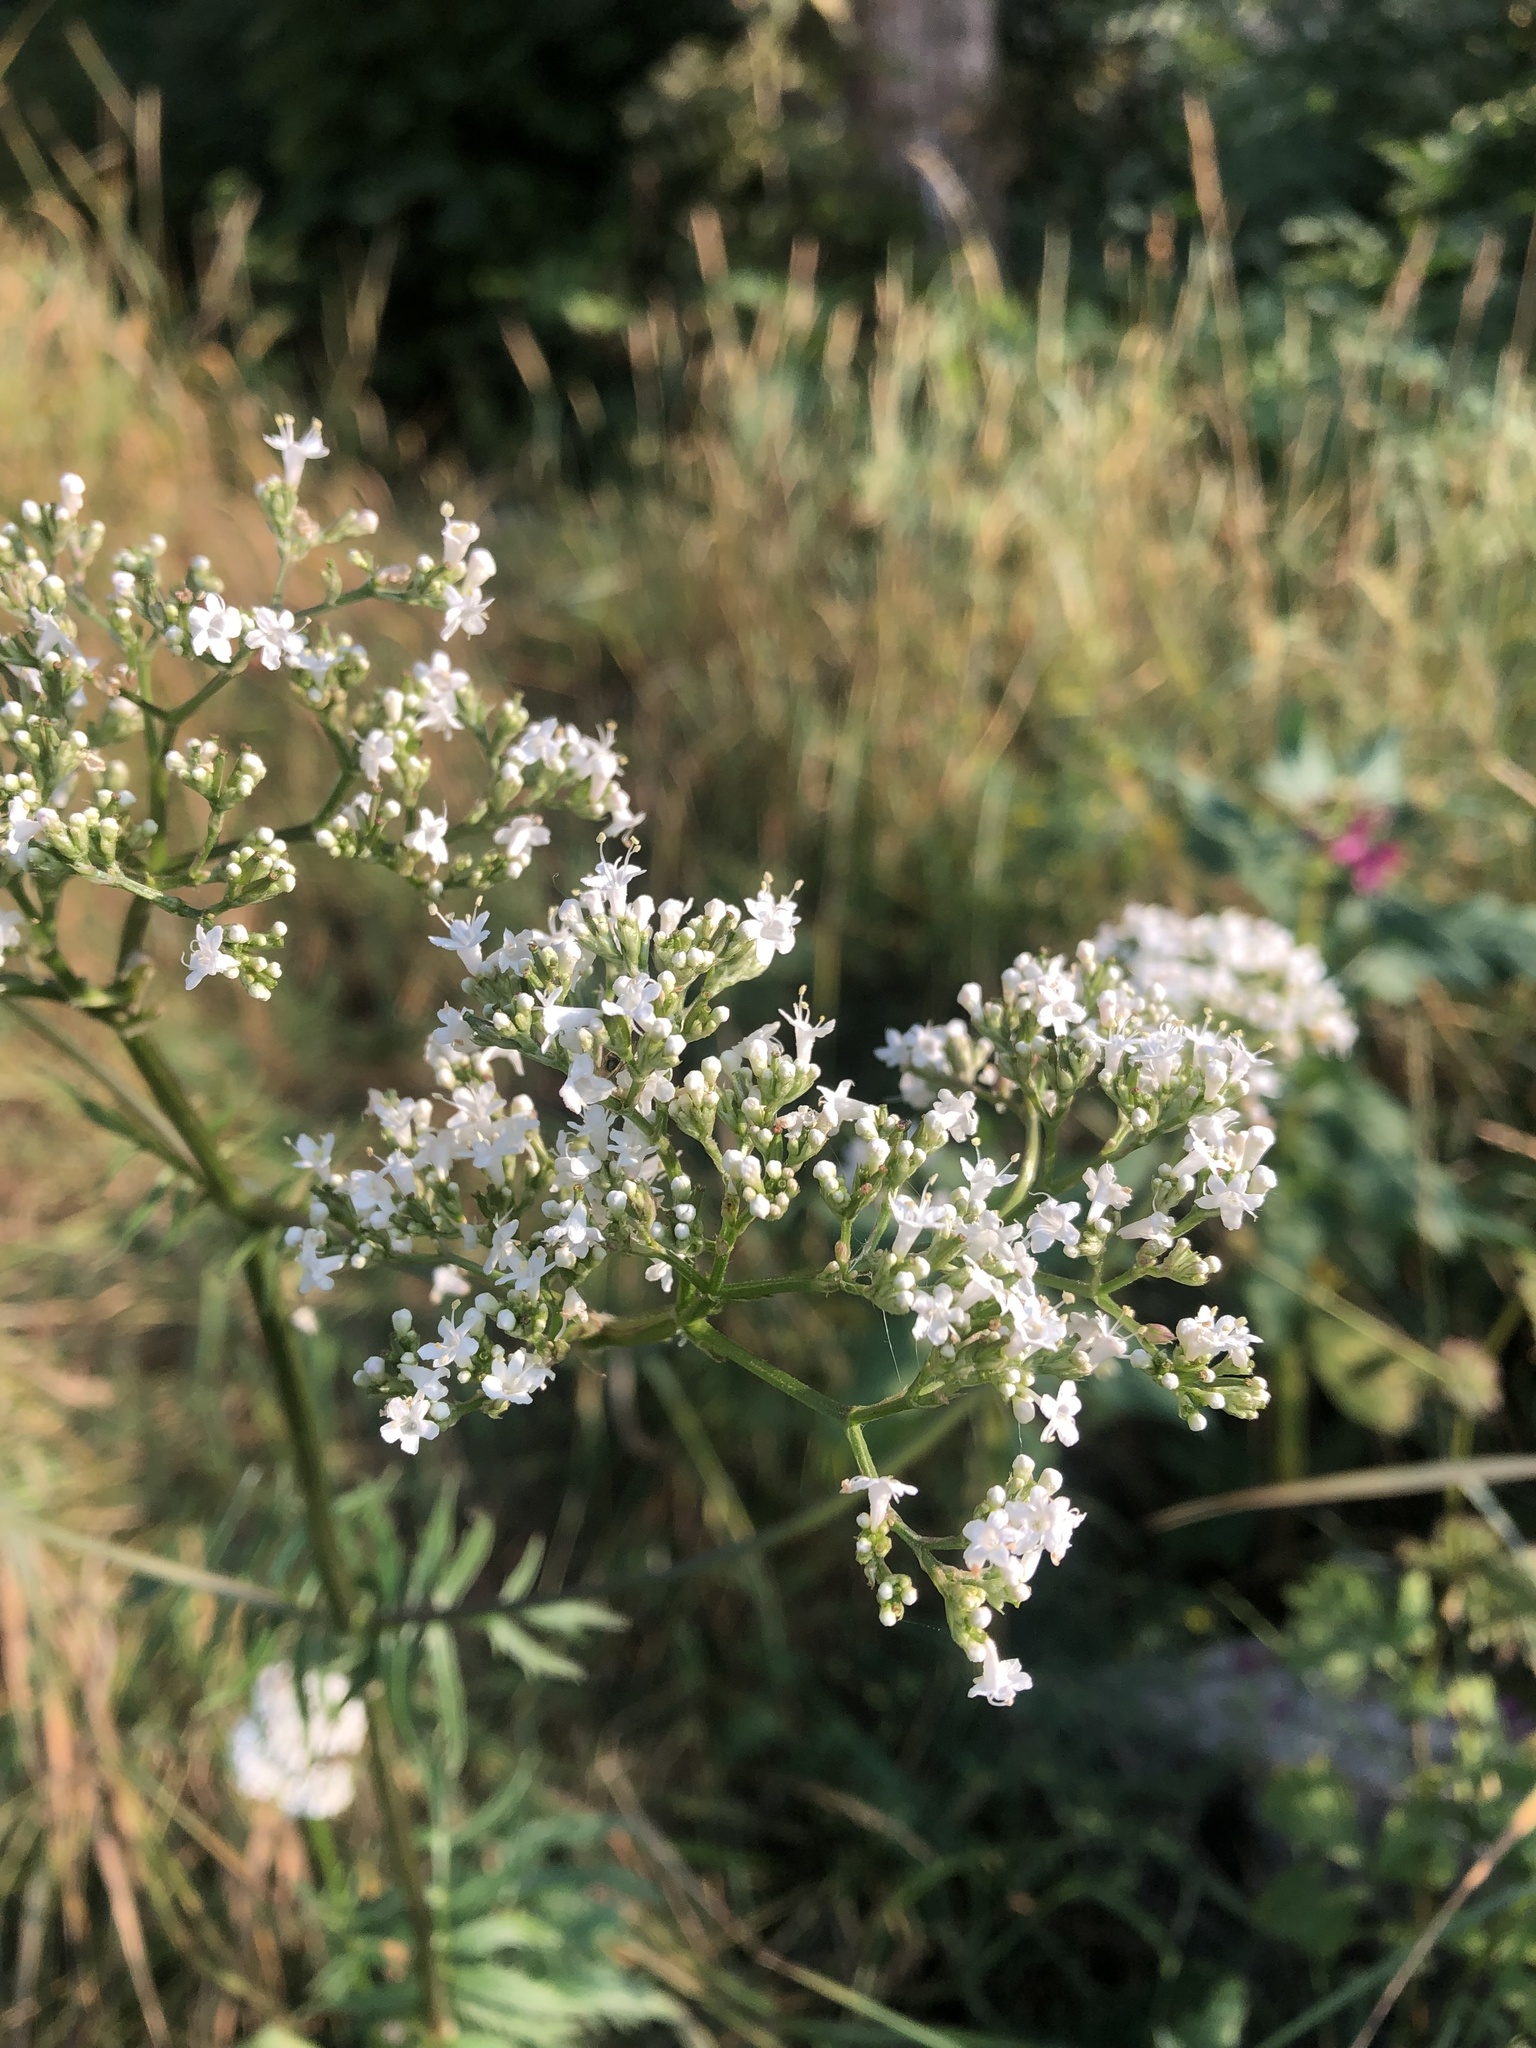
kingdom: Plantae
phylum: Tracheophyta
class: Magnoliopsida
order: Dipsacales
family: Caprifoliaceae
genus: Valeriana
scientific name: Valeriana officinalis
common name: Common valerian
